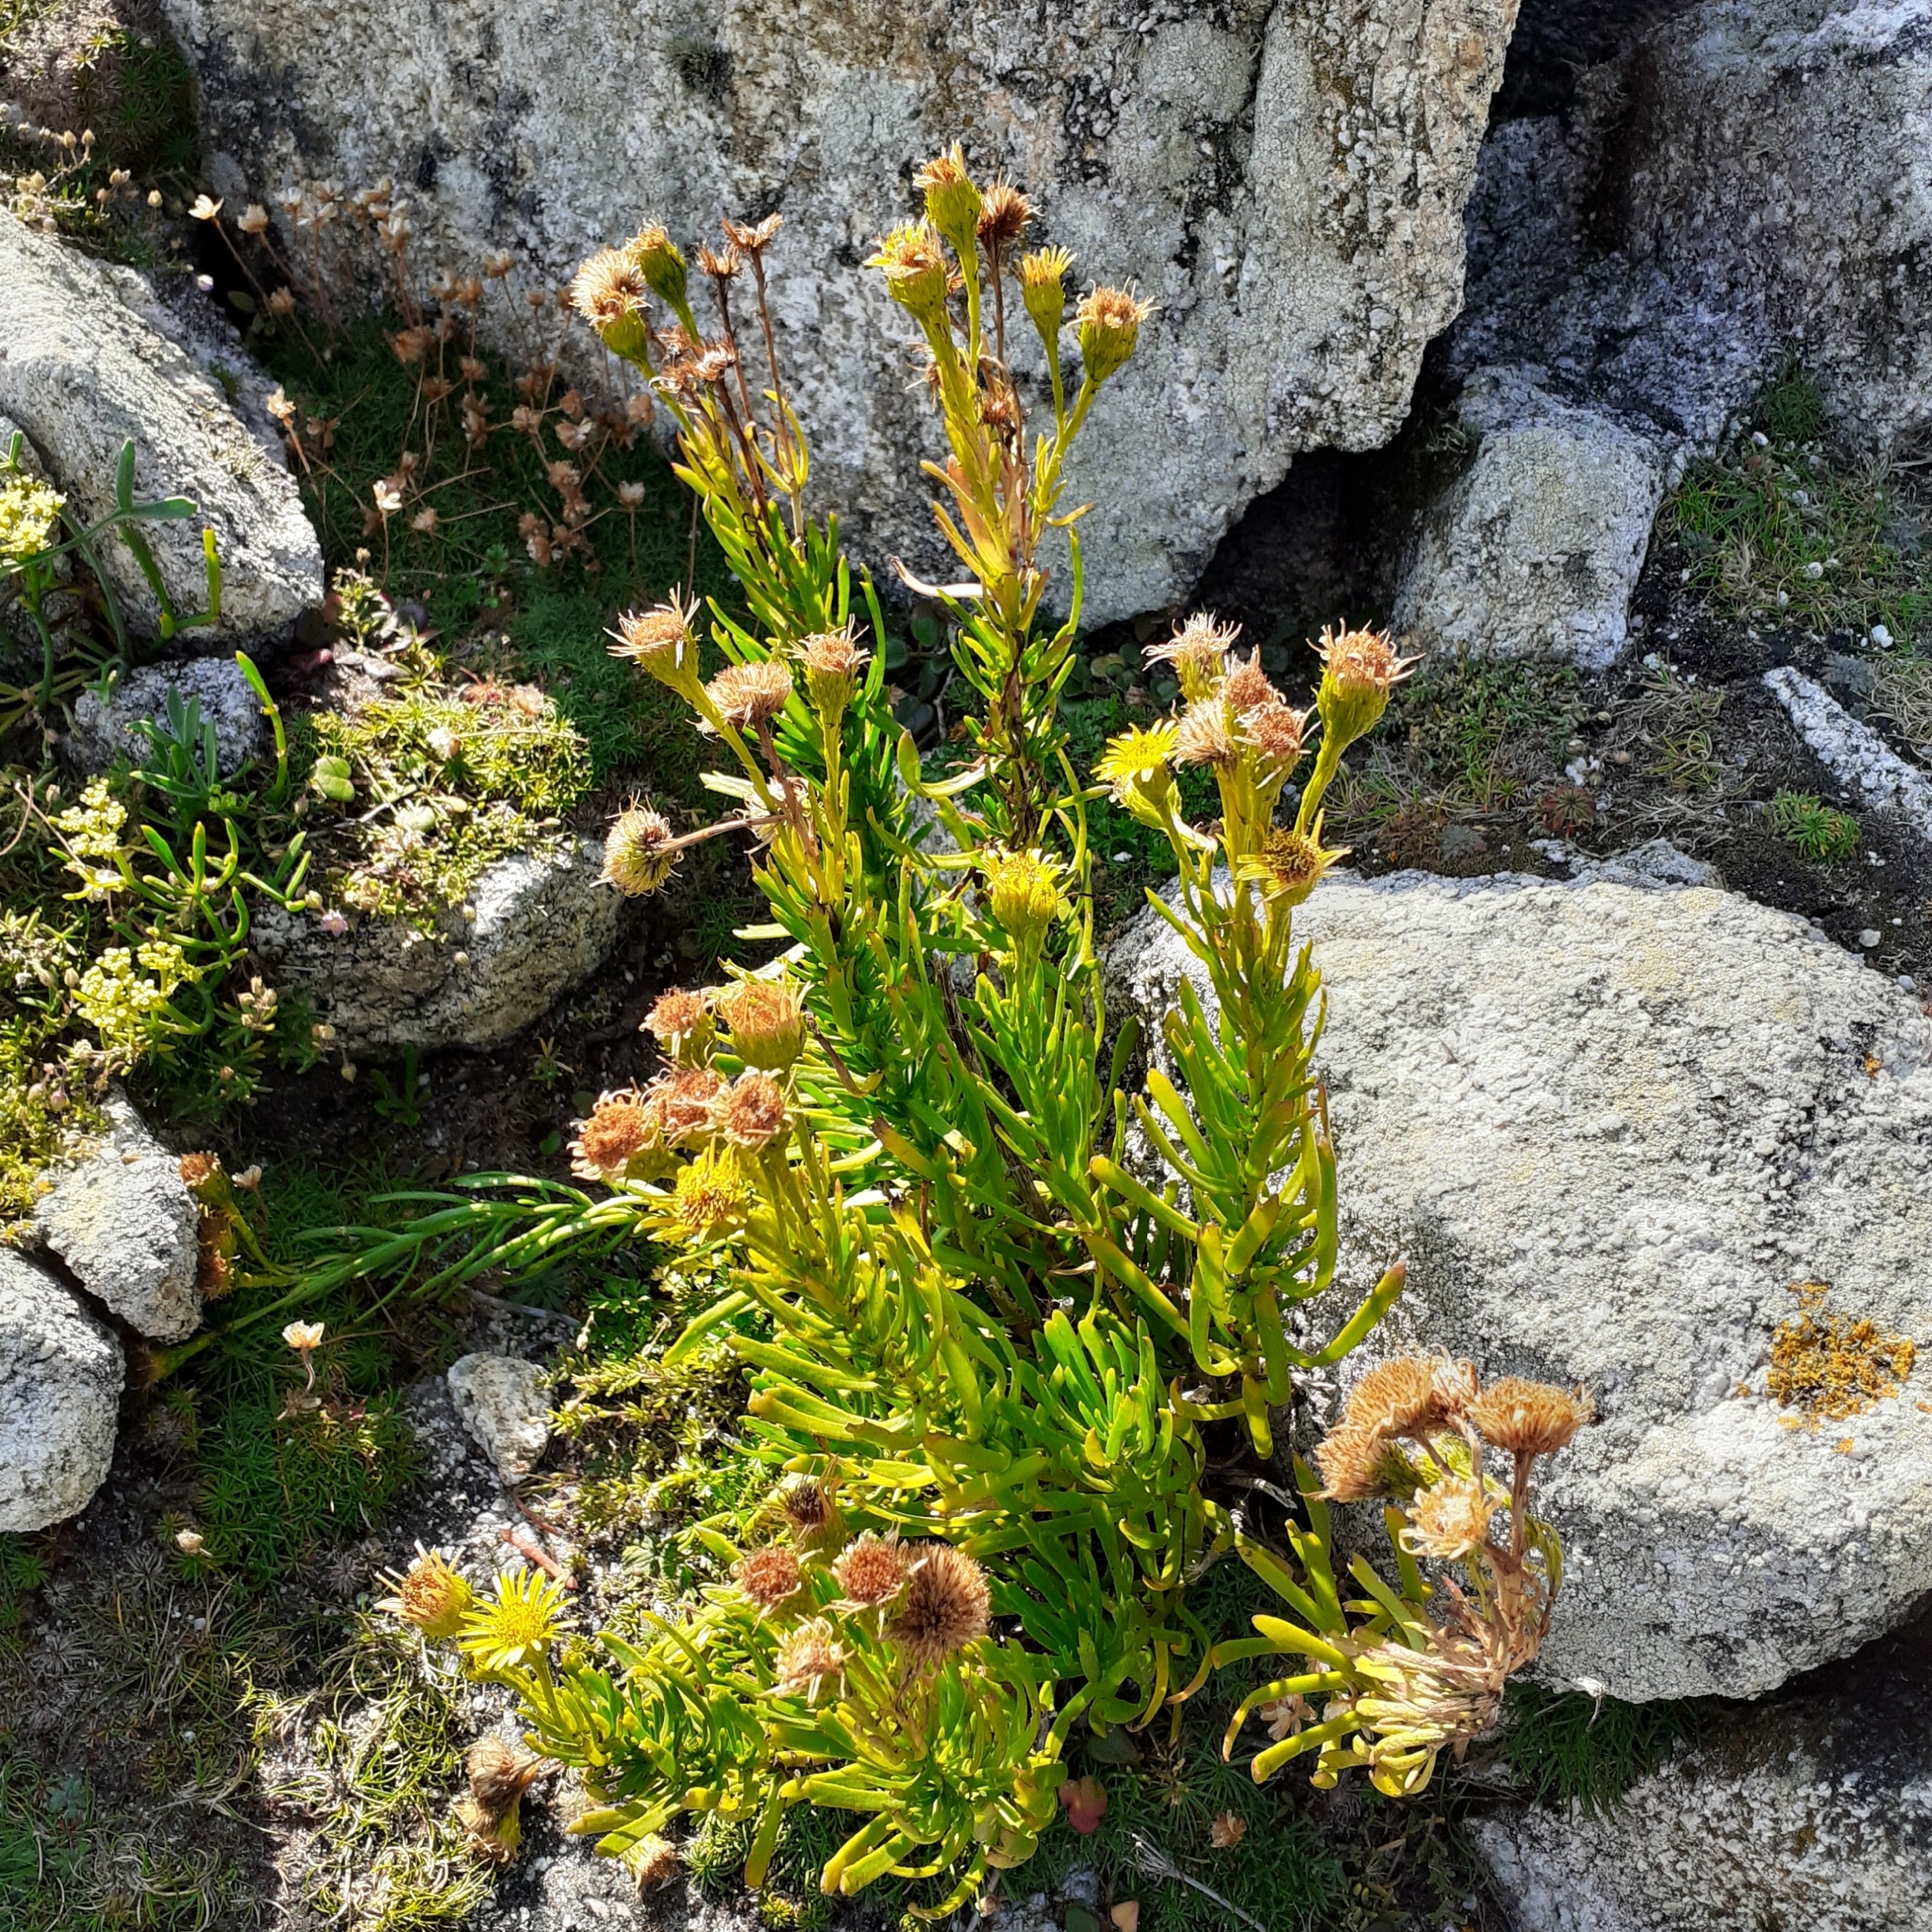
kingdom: Plantae
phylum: Tracheophyta
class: Magnoliopsida
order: Asterales
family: Asteraceae
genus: Limbarda
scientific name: Limbarda crithmoides
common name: Golden samphire
